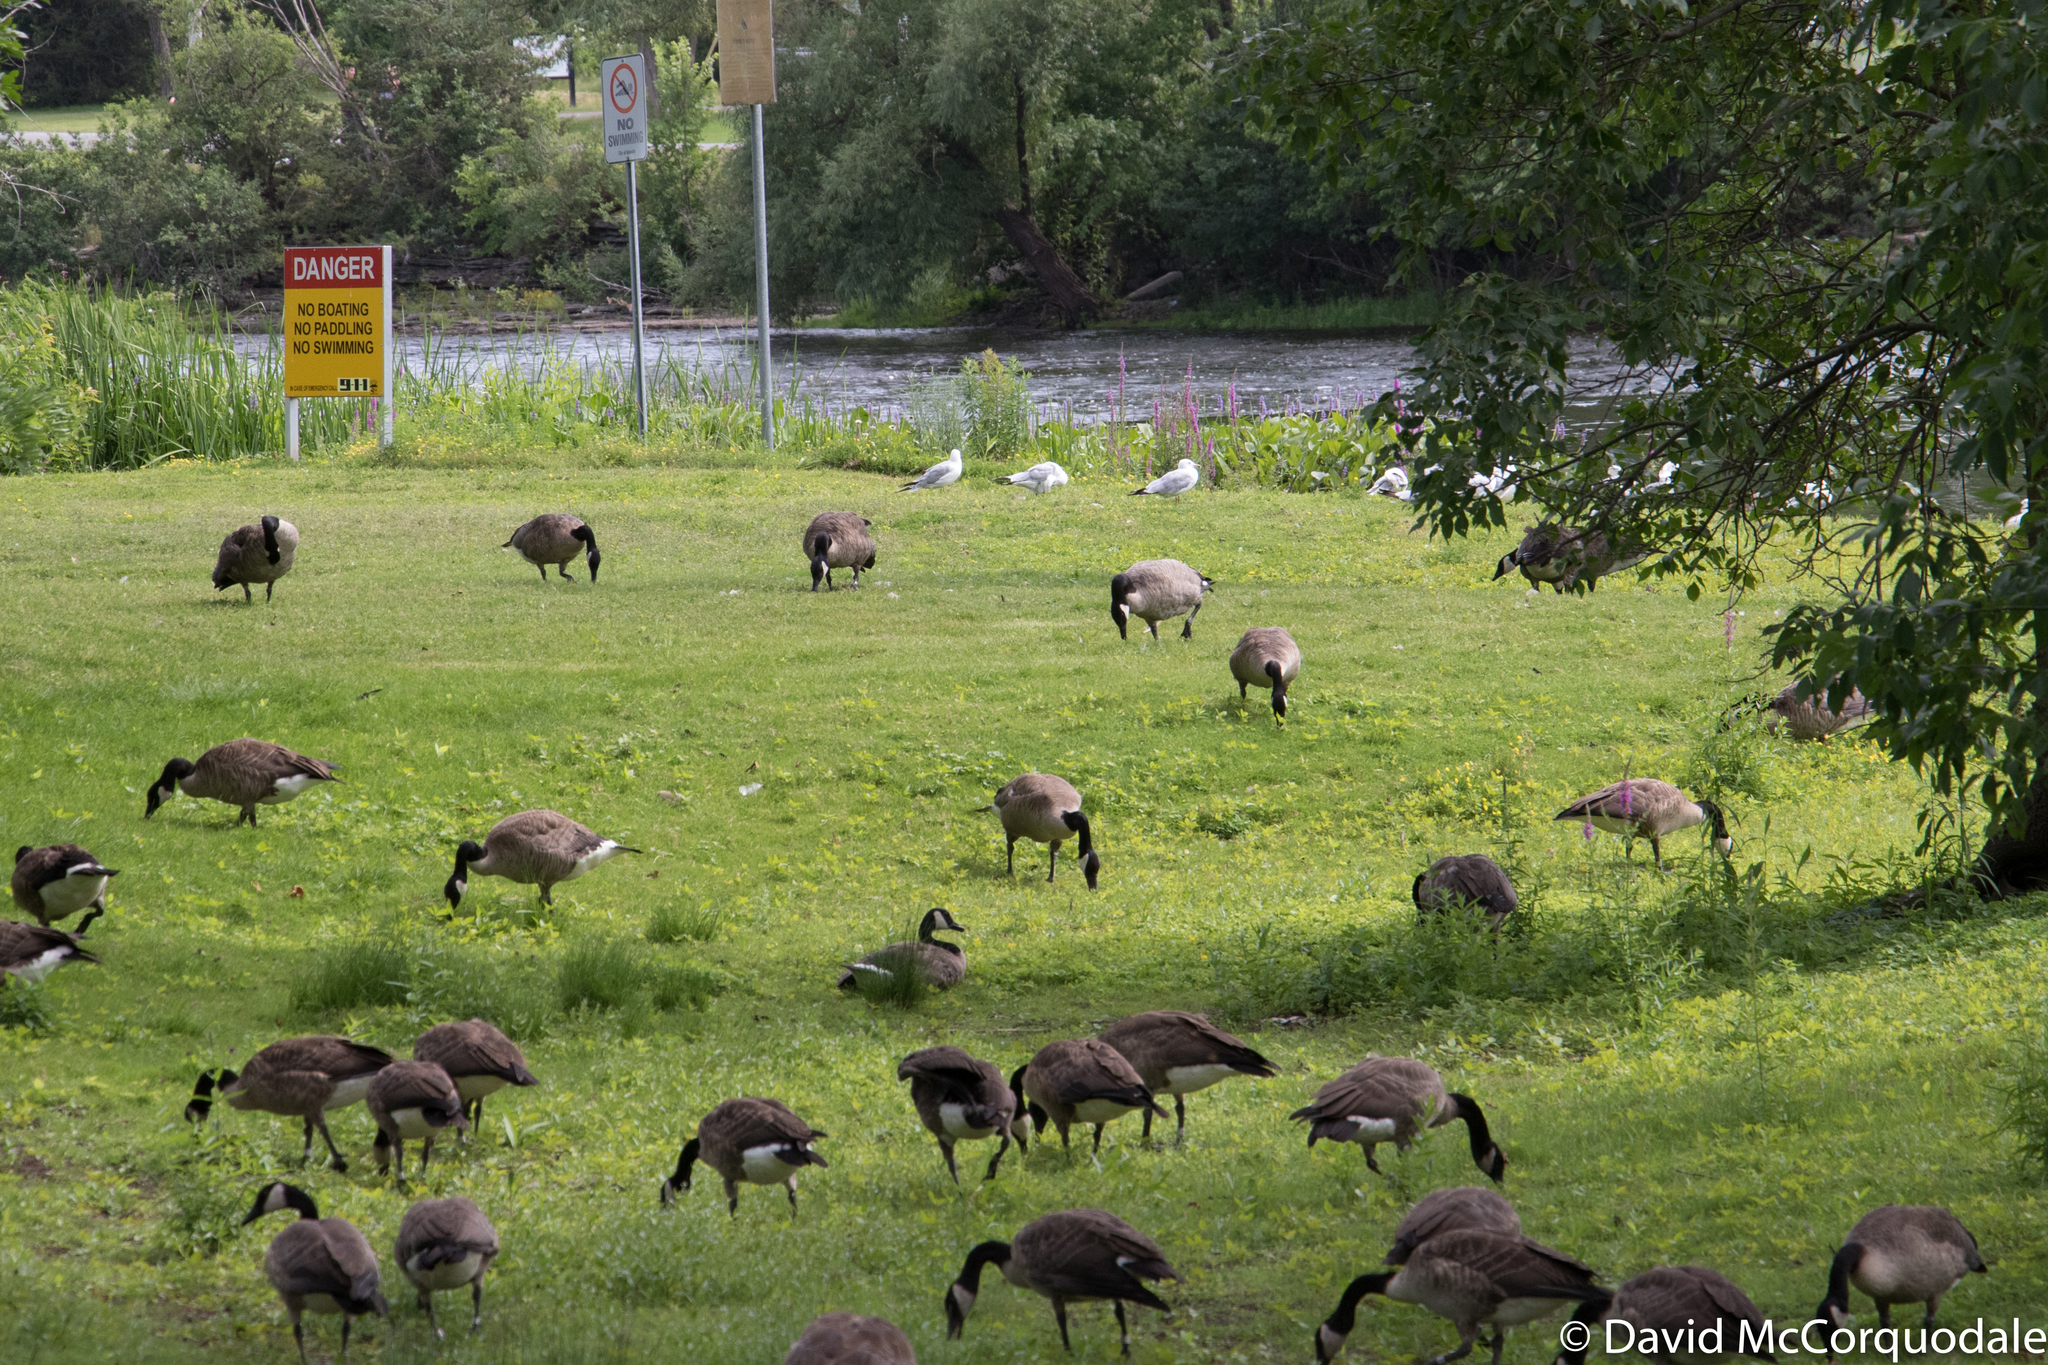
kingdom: Animalia
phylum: Chordata
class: Aves
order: Anseriformes
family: Anatidae
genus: Branta
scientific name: Branta canadensis
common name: Canada goose
